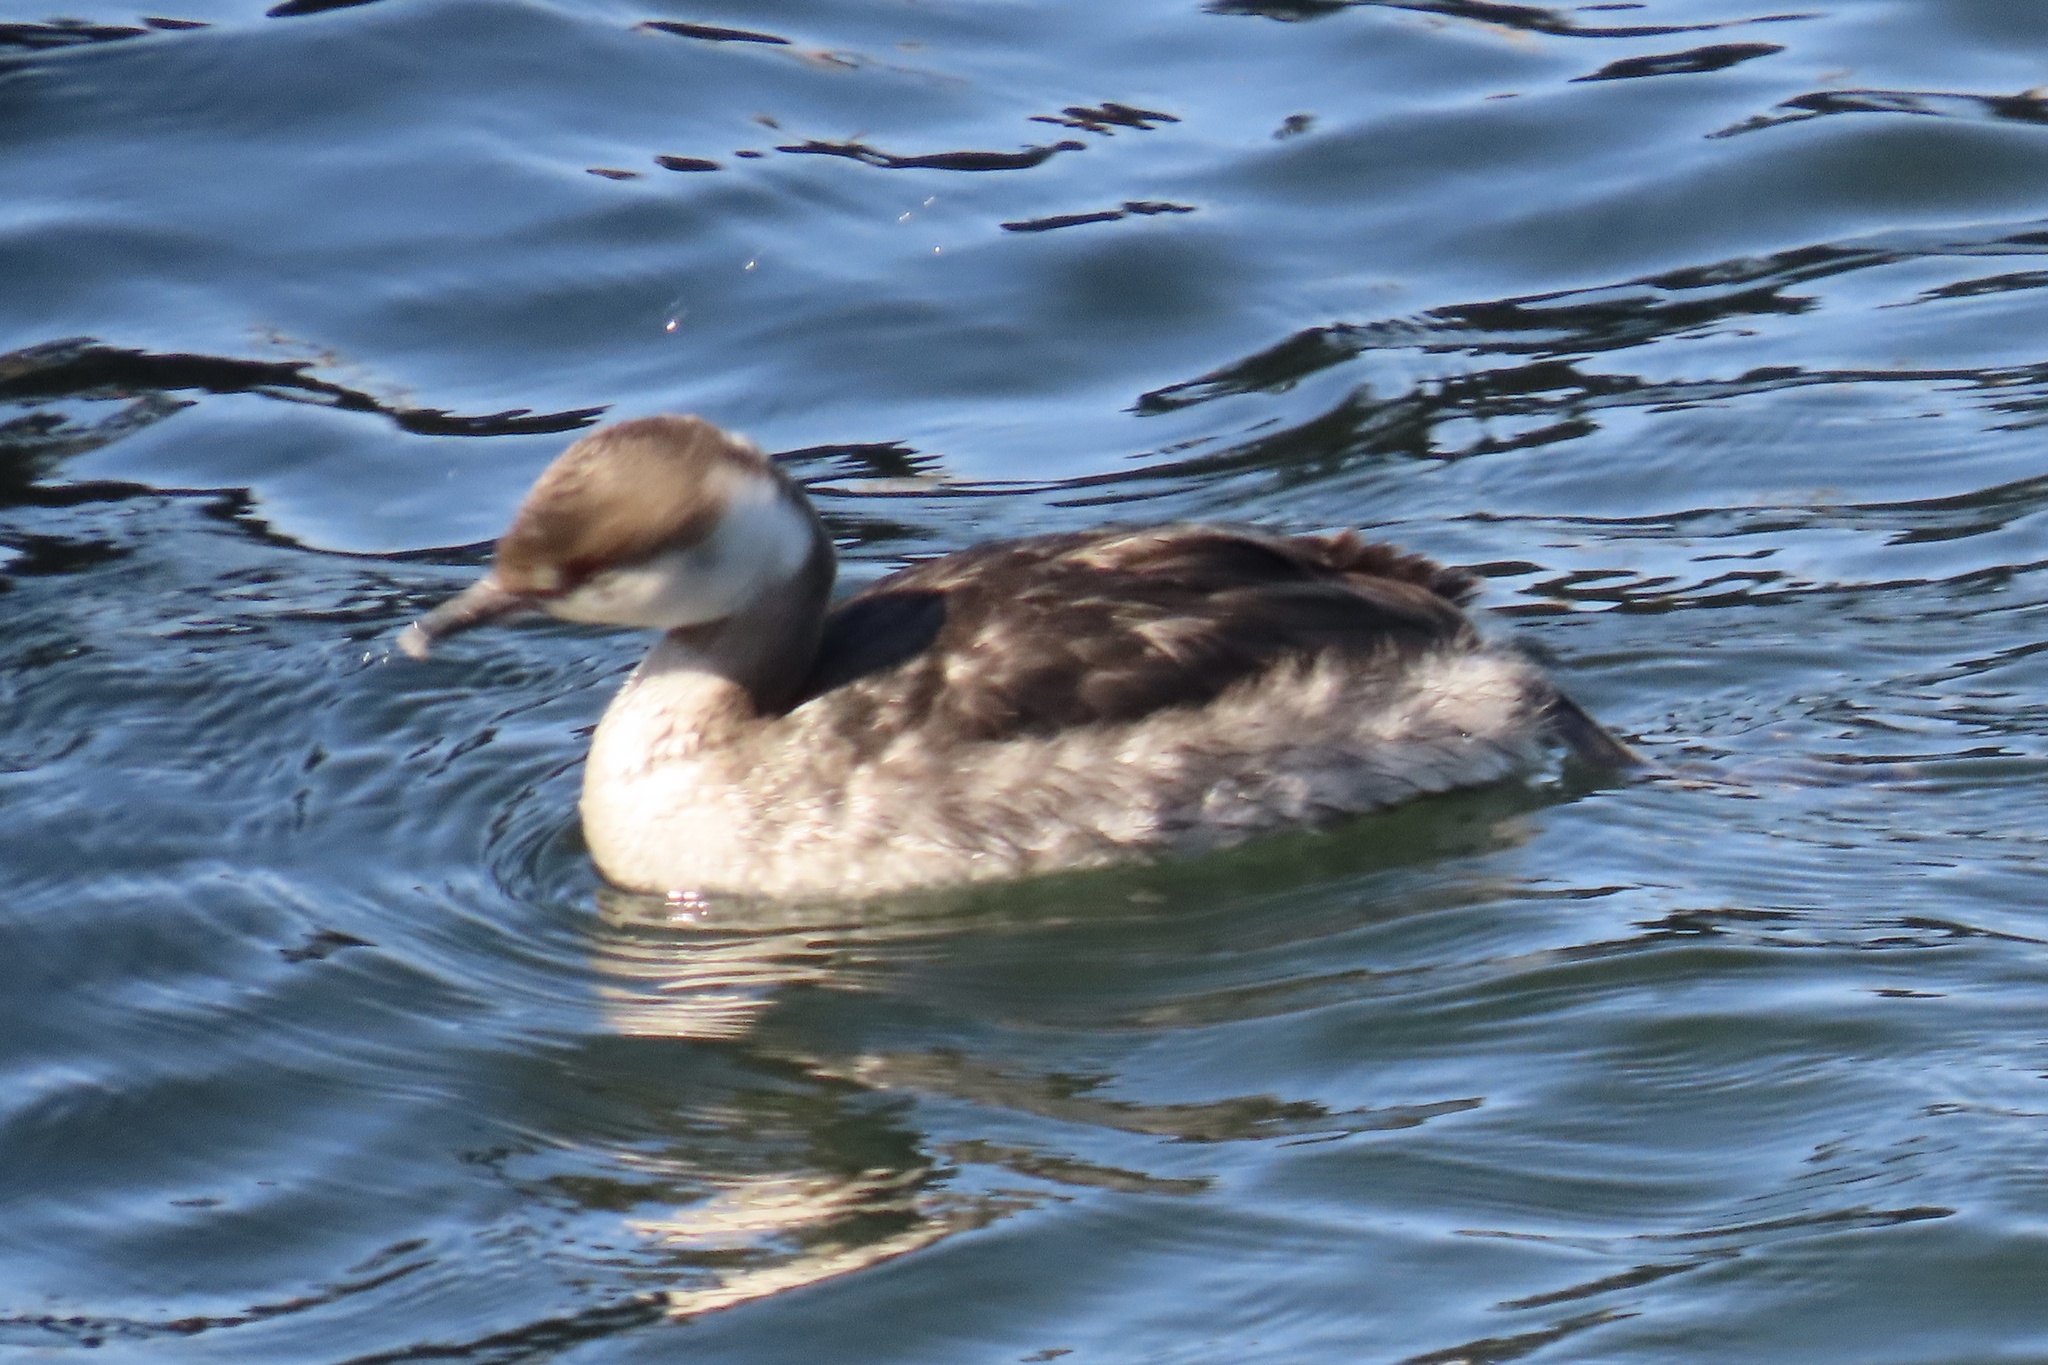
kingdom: Animalia
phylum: Chordata
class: Aves
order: Podicipediformes
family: Podicipedidae
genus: Podiceps
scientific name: Podiceps auritus
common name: Horned grebe
